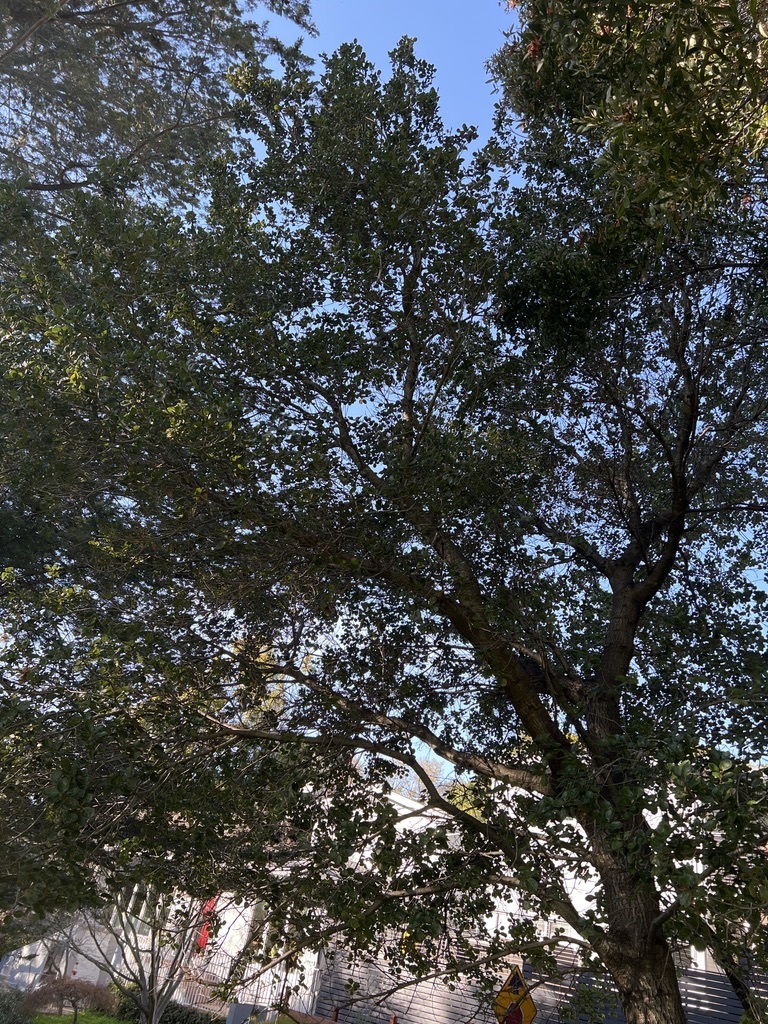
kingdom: Plantae
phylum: Tracheophyta
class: Magnoliopsida
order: Fagales
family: Fagaceae
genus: Quercus
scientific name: Quercus agrifolia
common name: California live oak
